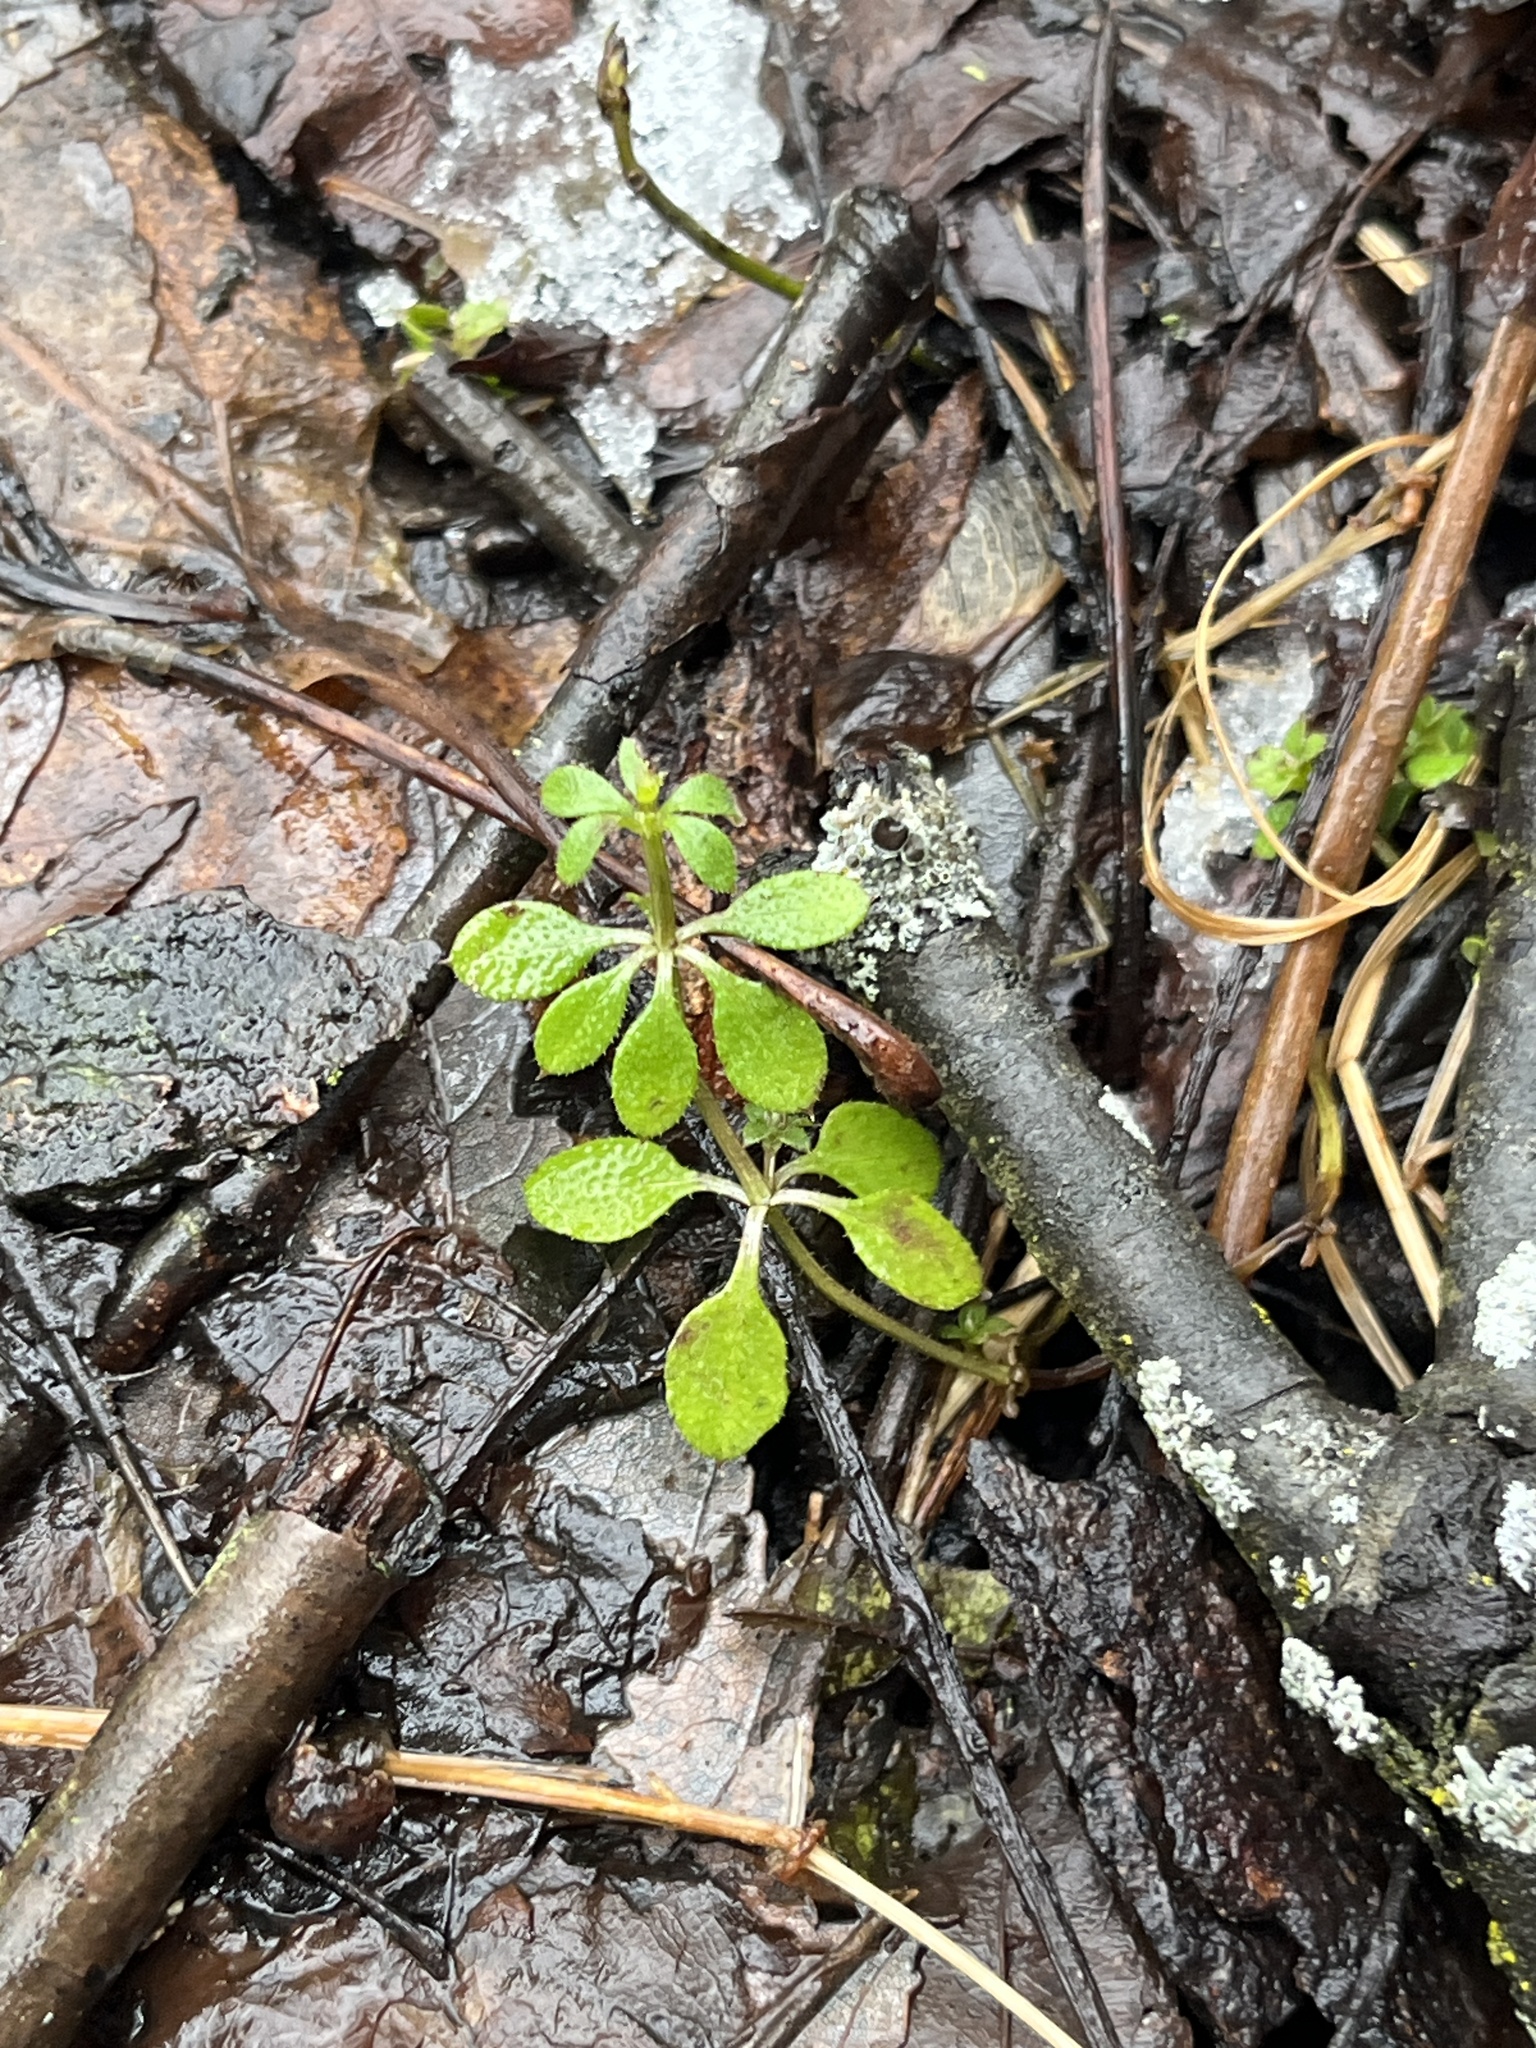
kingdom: Plantae
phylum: Tracheophyta
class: Magnoliopsida
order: Gentianales
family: Rubiaceae
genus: Galium
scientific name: Galium aparine
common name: Cleavers
